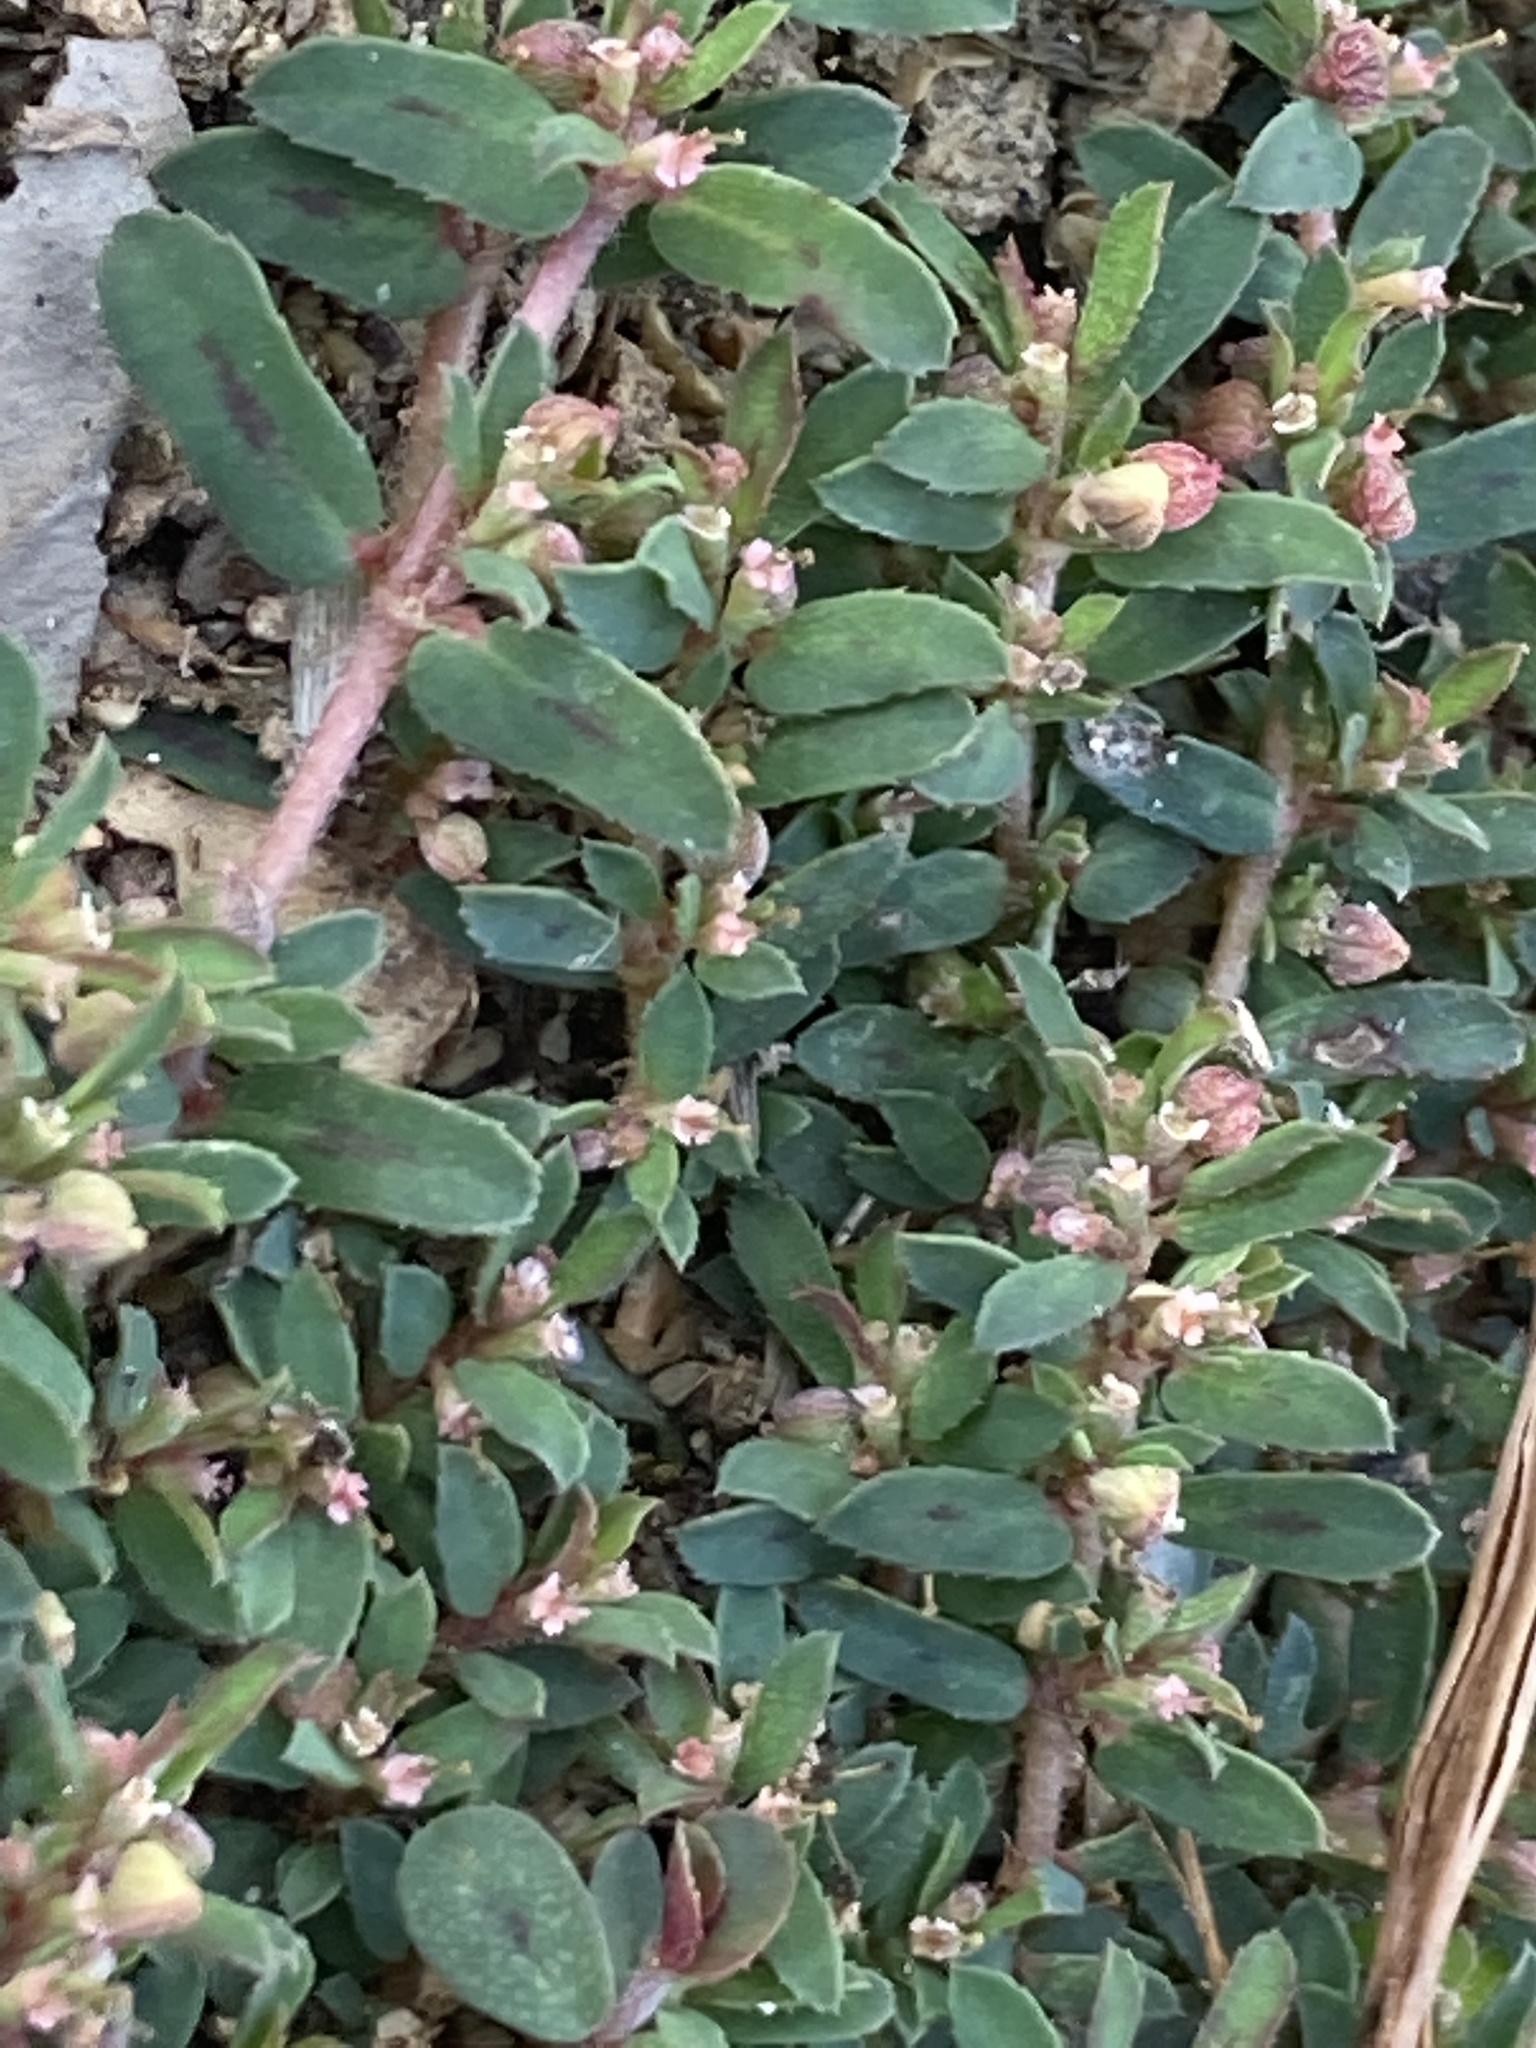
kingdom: Plantae
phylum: Tracheophyta
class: Magnoliopsida
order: Malpighiales
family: Euphorbiaceae
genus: Euphorbia
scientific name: Euphorbia maculata
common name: Spotted spurge
